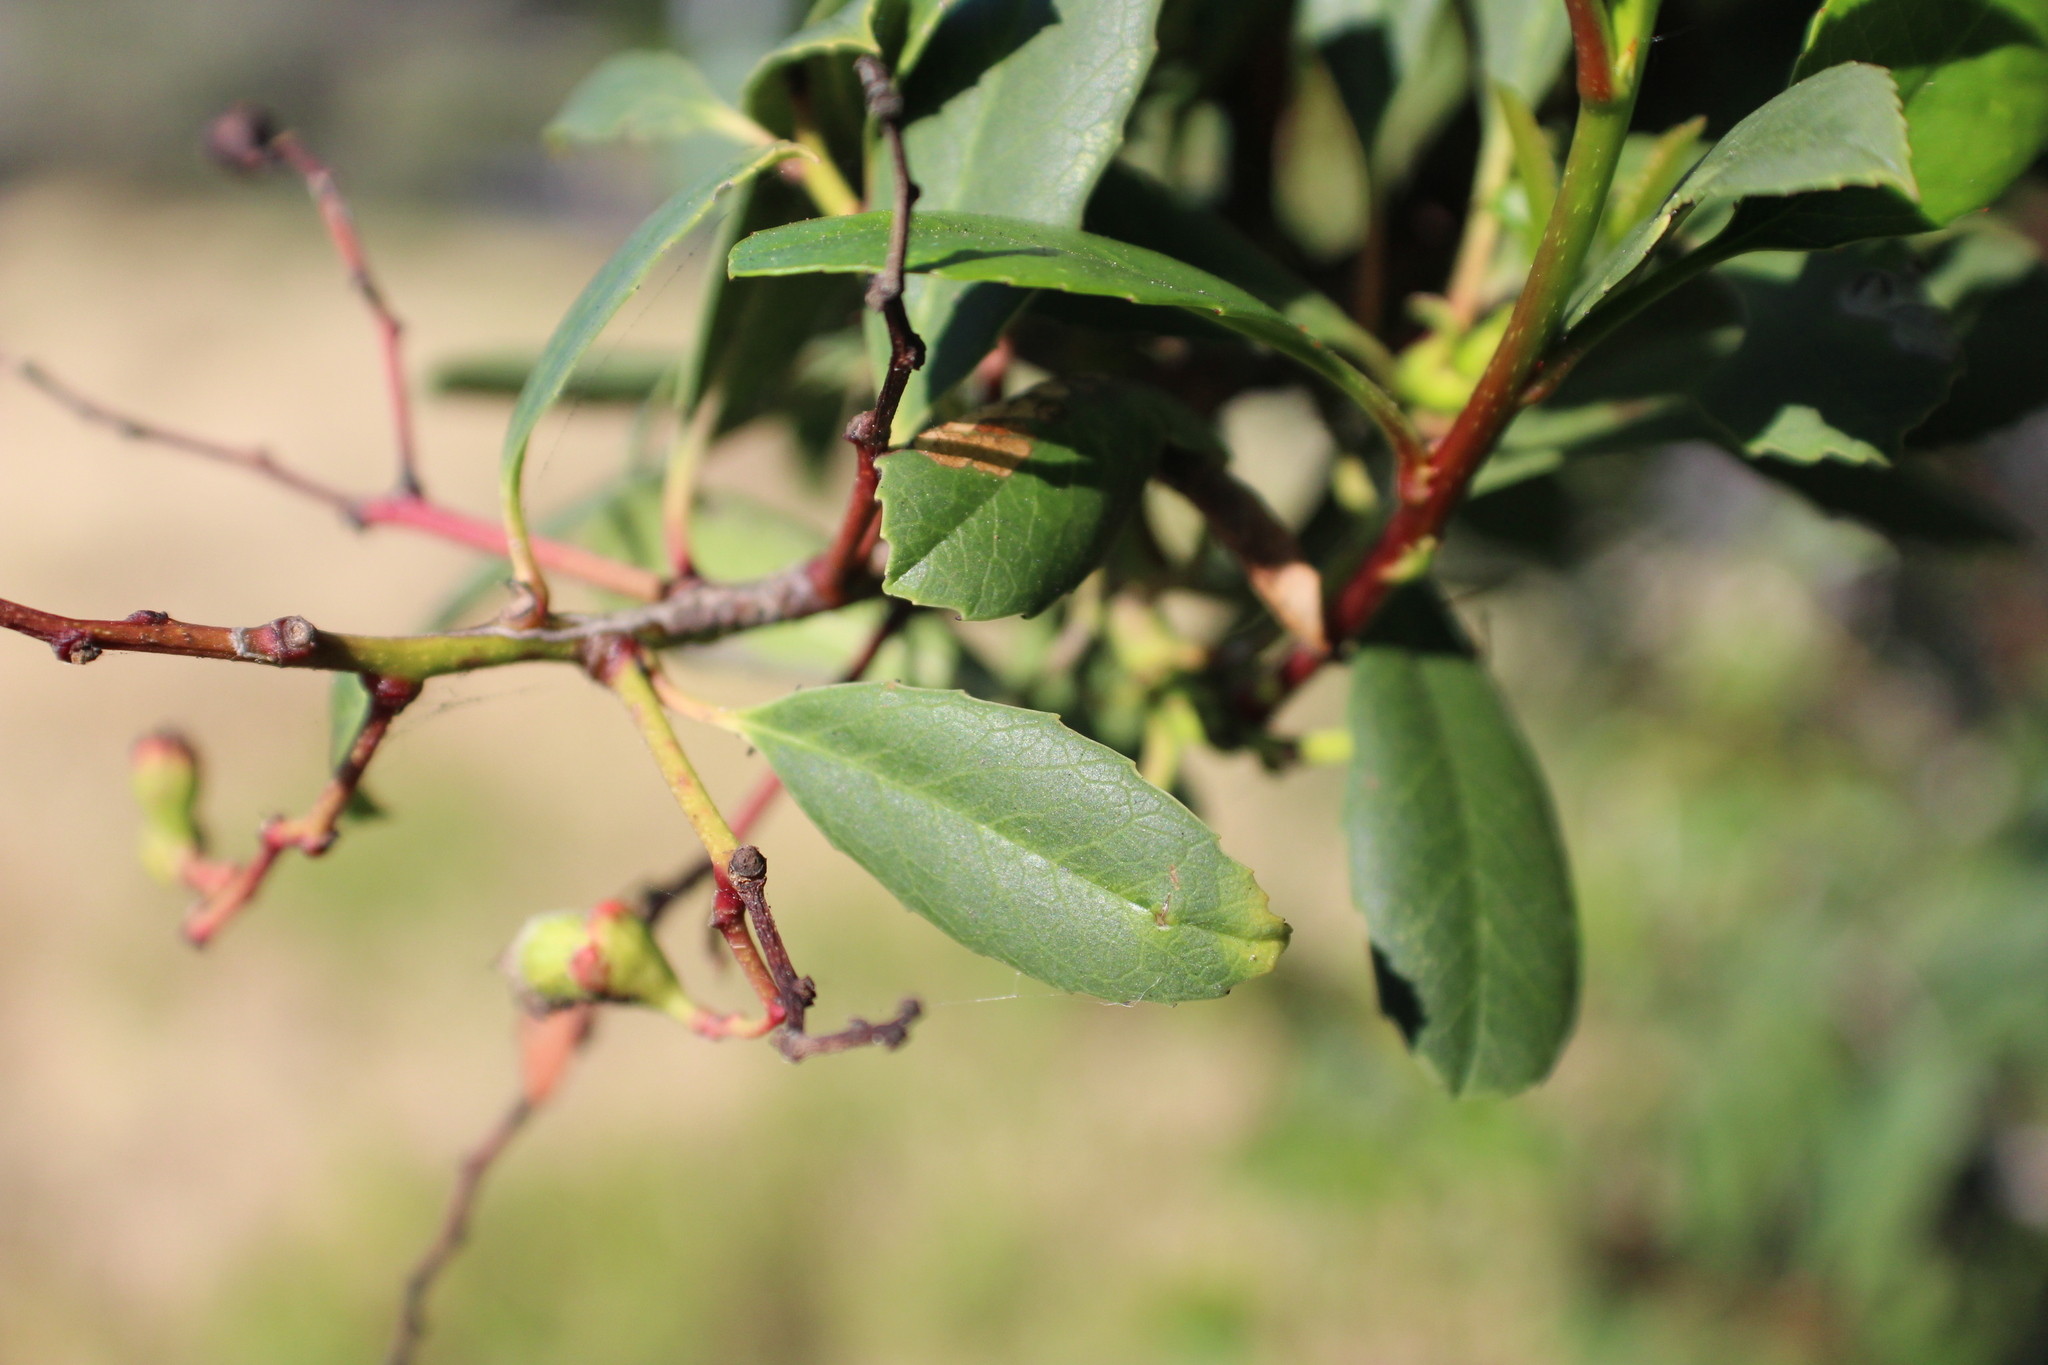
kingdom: Plantae
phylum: Tracheophyta
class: Magnoliopsida
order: Rosales
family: Rosaceae
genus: Heteromeles
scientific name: Heteromeles arbutifolia
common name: California-holly
